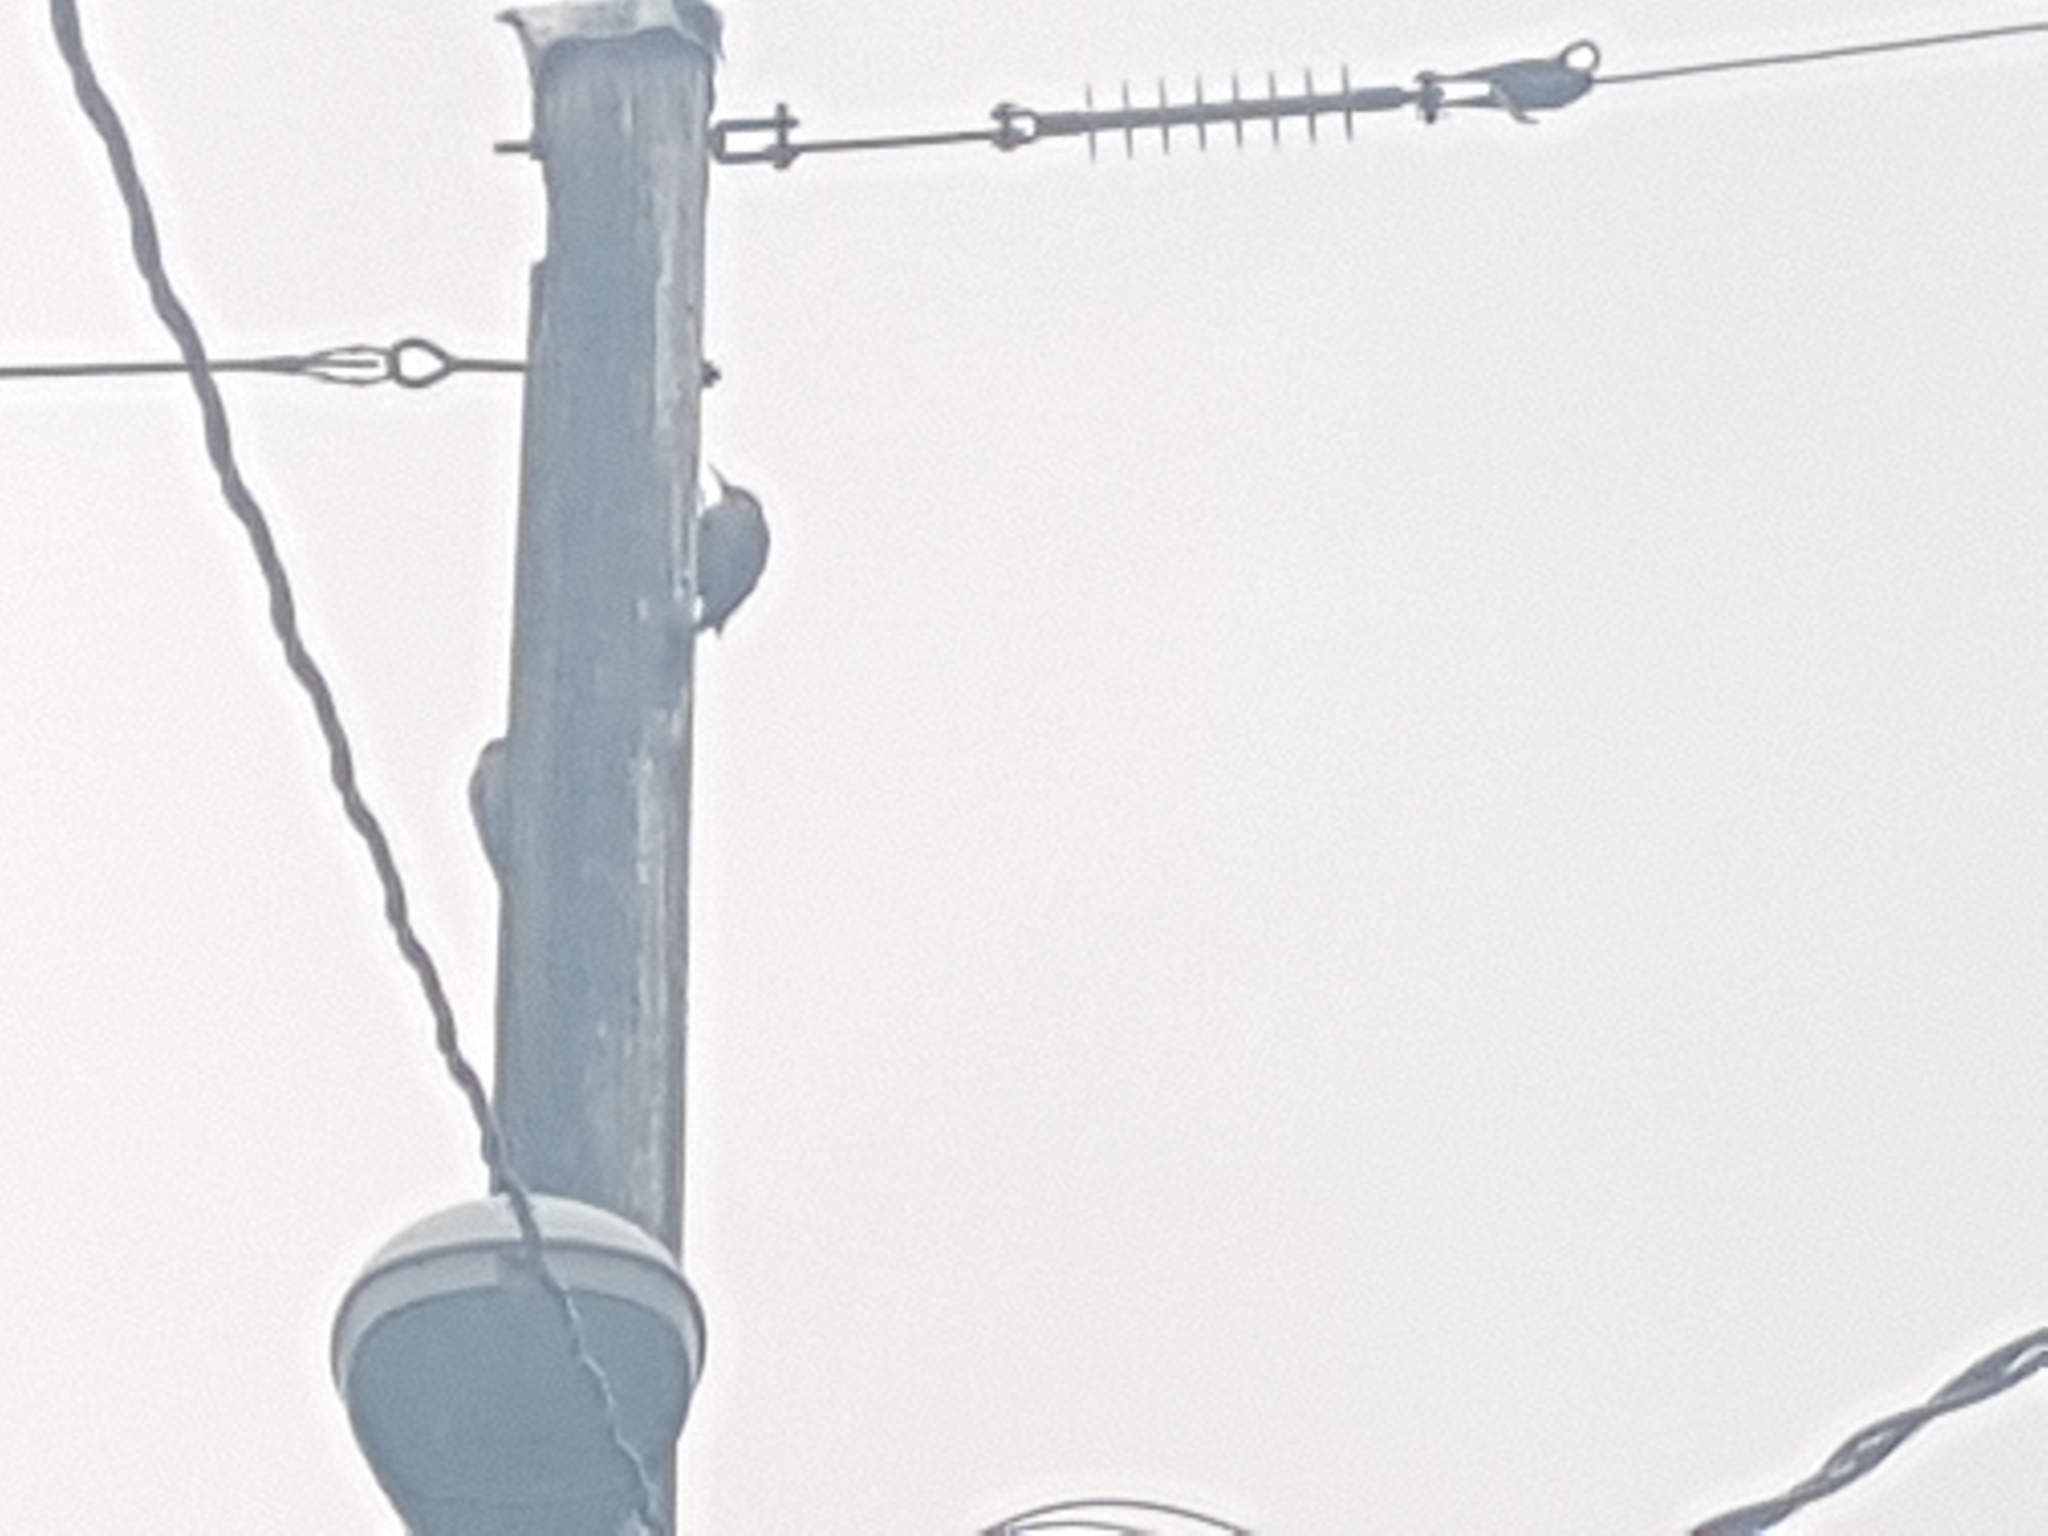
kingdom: Animalia
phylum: Chordata
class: Aves
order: Piciformes
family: Picidae
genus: Colaptes
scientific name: Colaptes auratus
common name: Northern flicker
